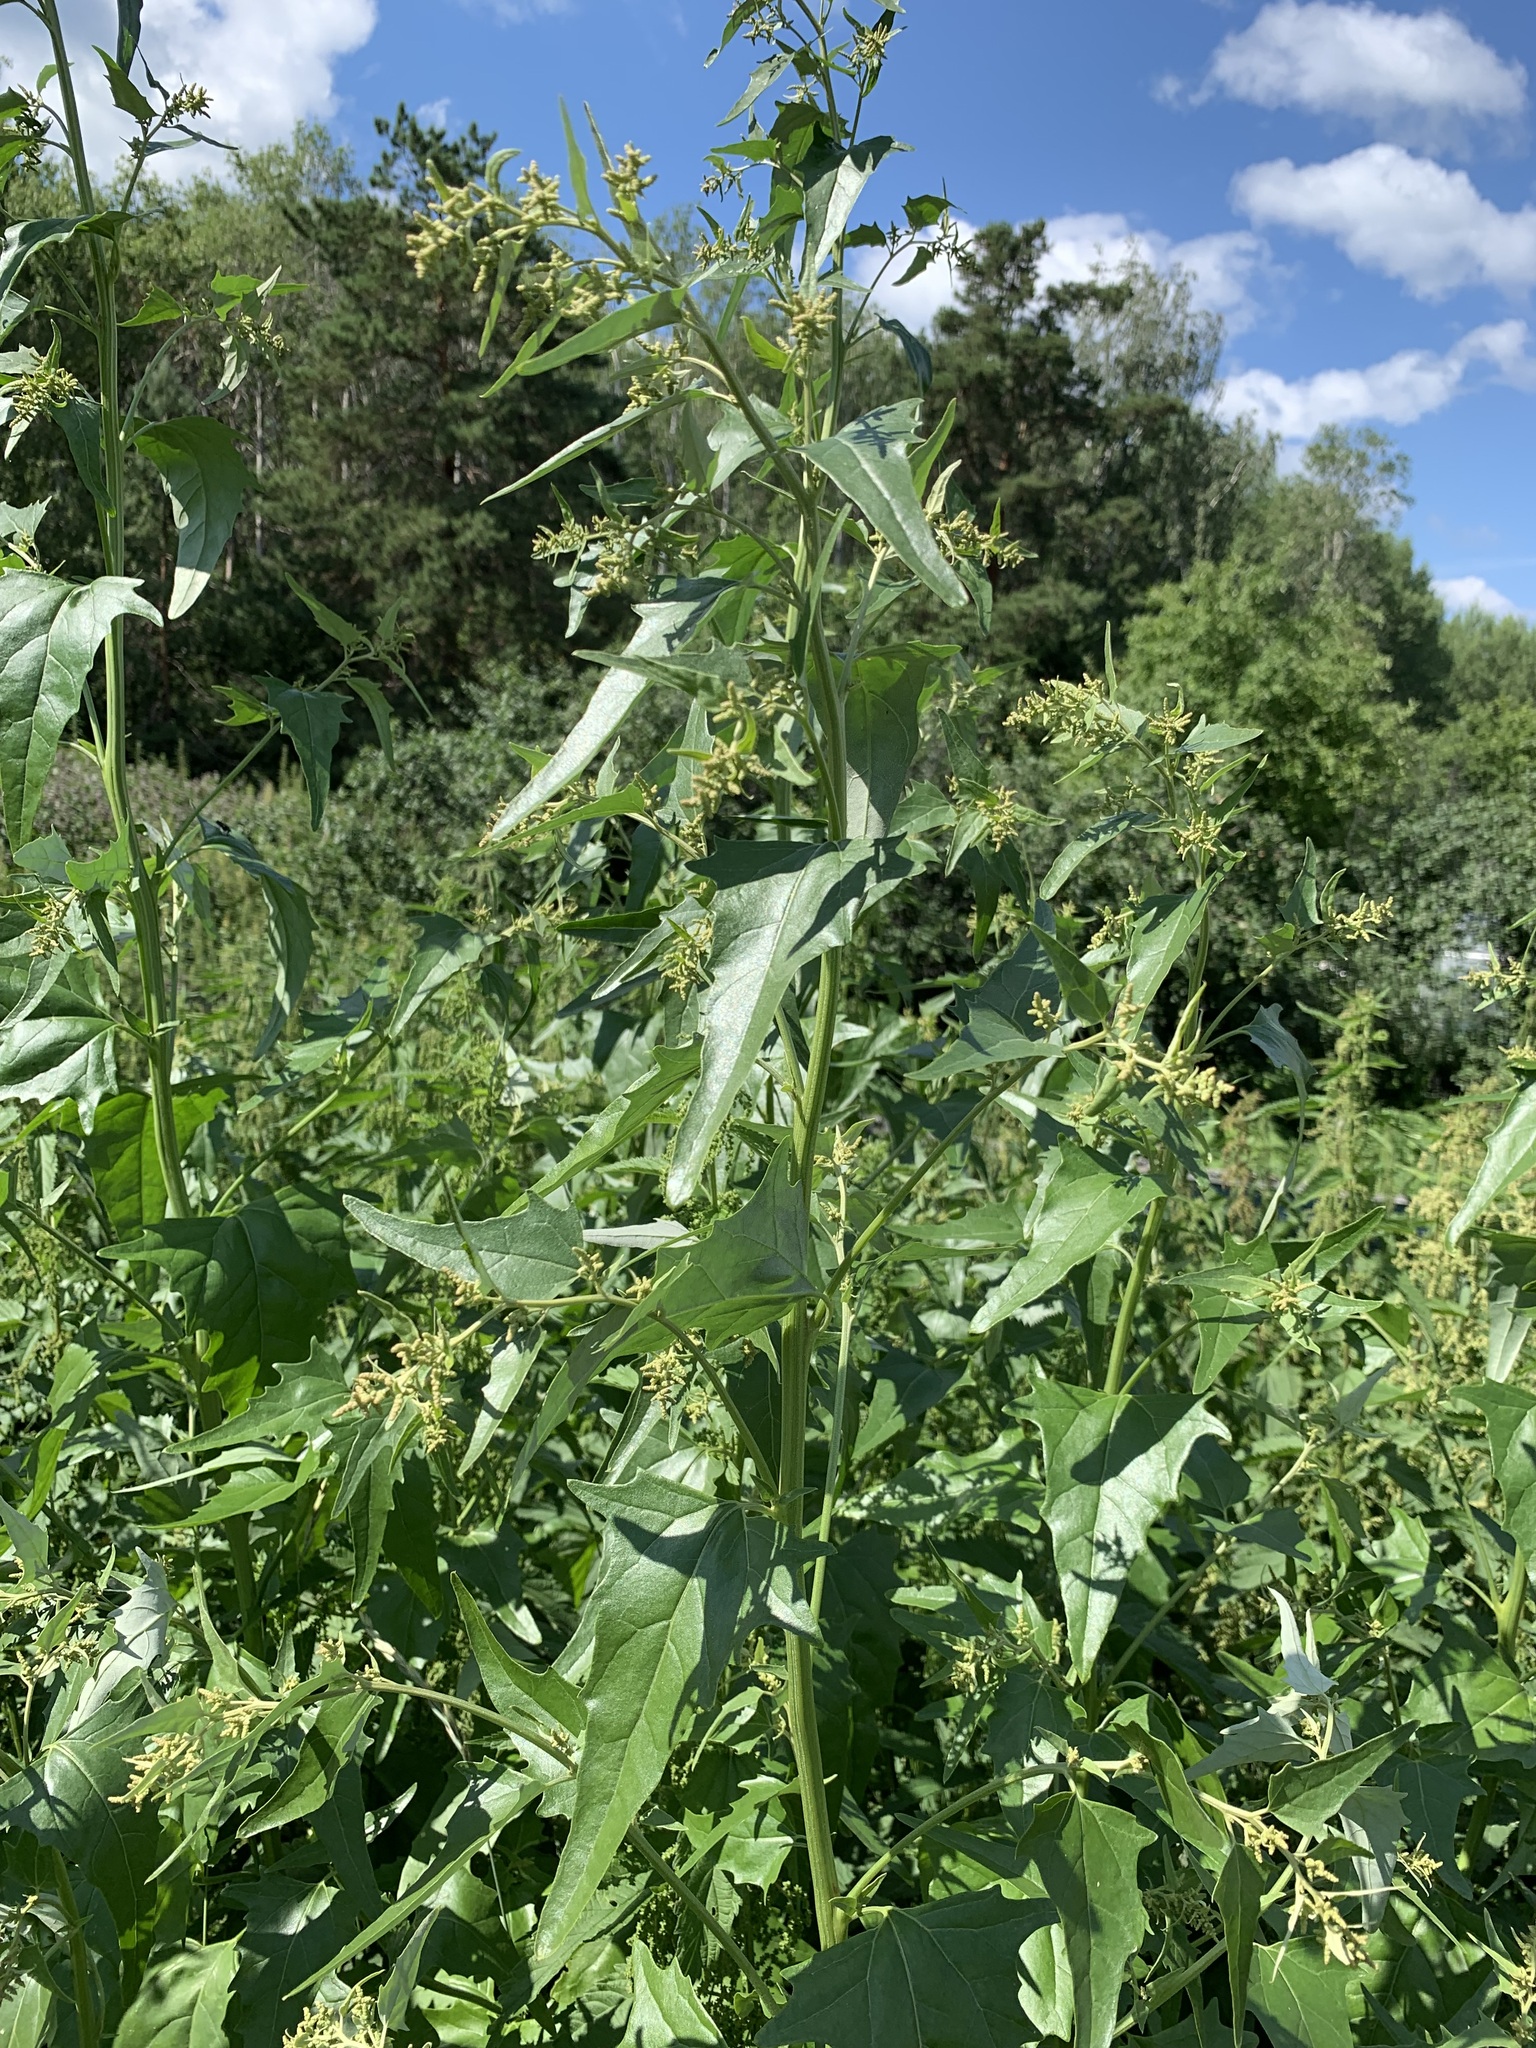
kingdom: Plantae
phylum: Tracheophyta
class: Magnoliopsida
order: Caryophyllales
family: Amaranthaceae
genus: Atriplex
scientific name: Atriplex sagittata
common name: Purple orache
